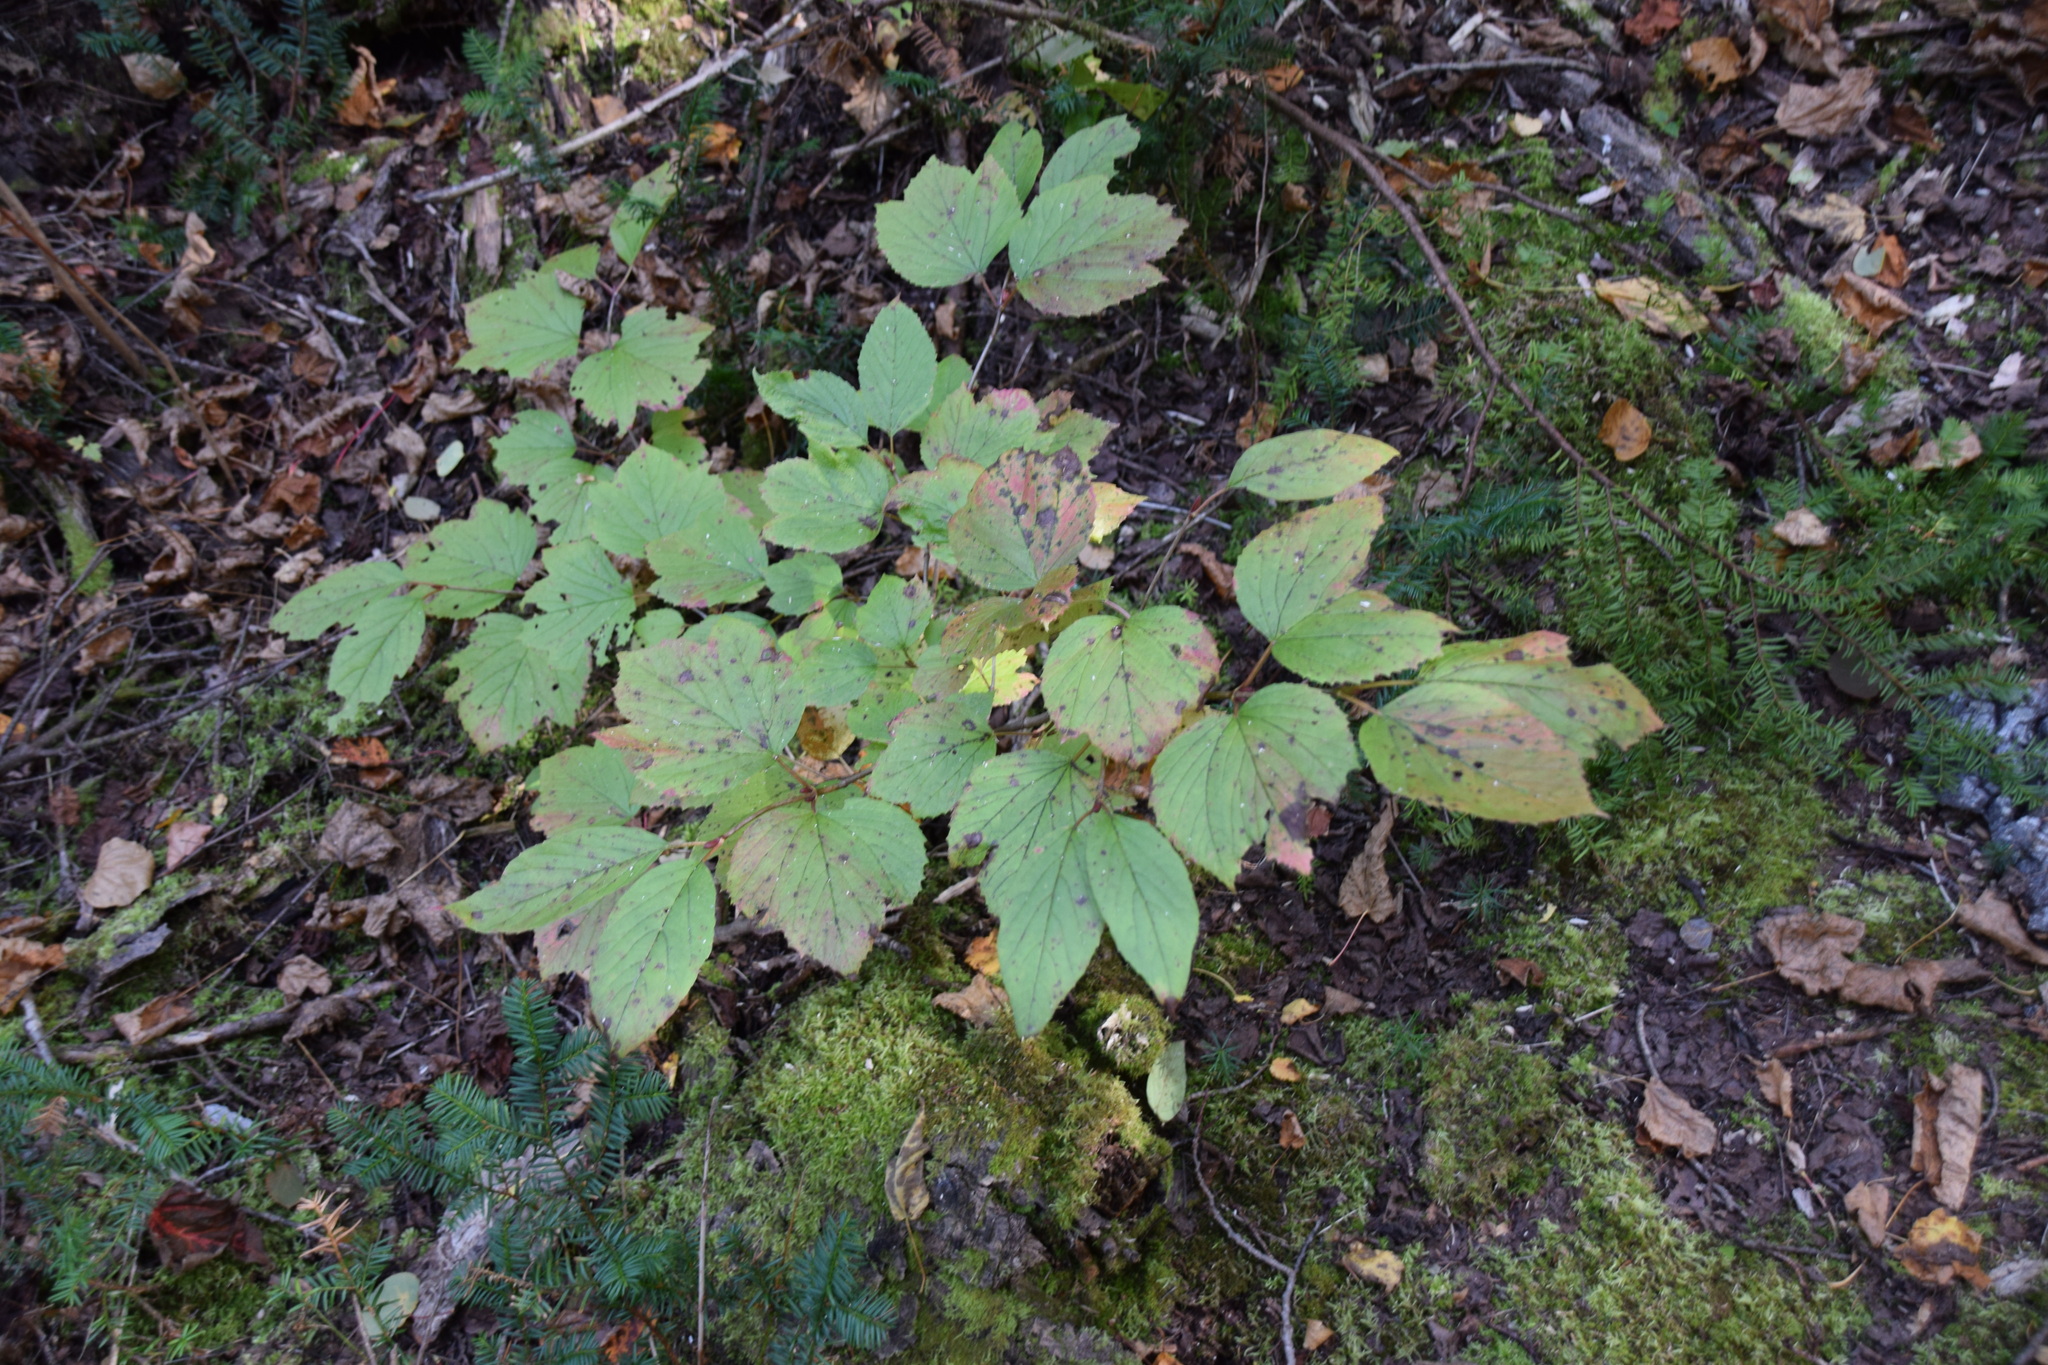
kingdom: Plantae
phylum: Tracheophyta
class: Magnoliopsida
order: Dipsacales
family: Viburnaceae
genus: Viburnum
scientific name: Viburnum edule
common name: Mooseberry
